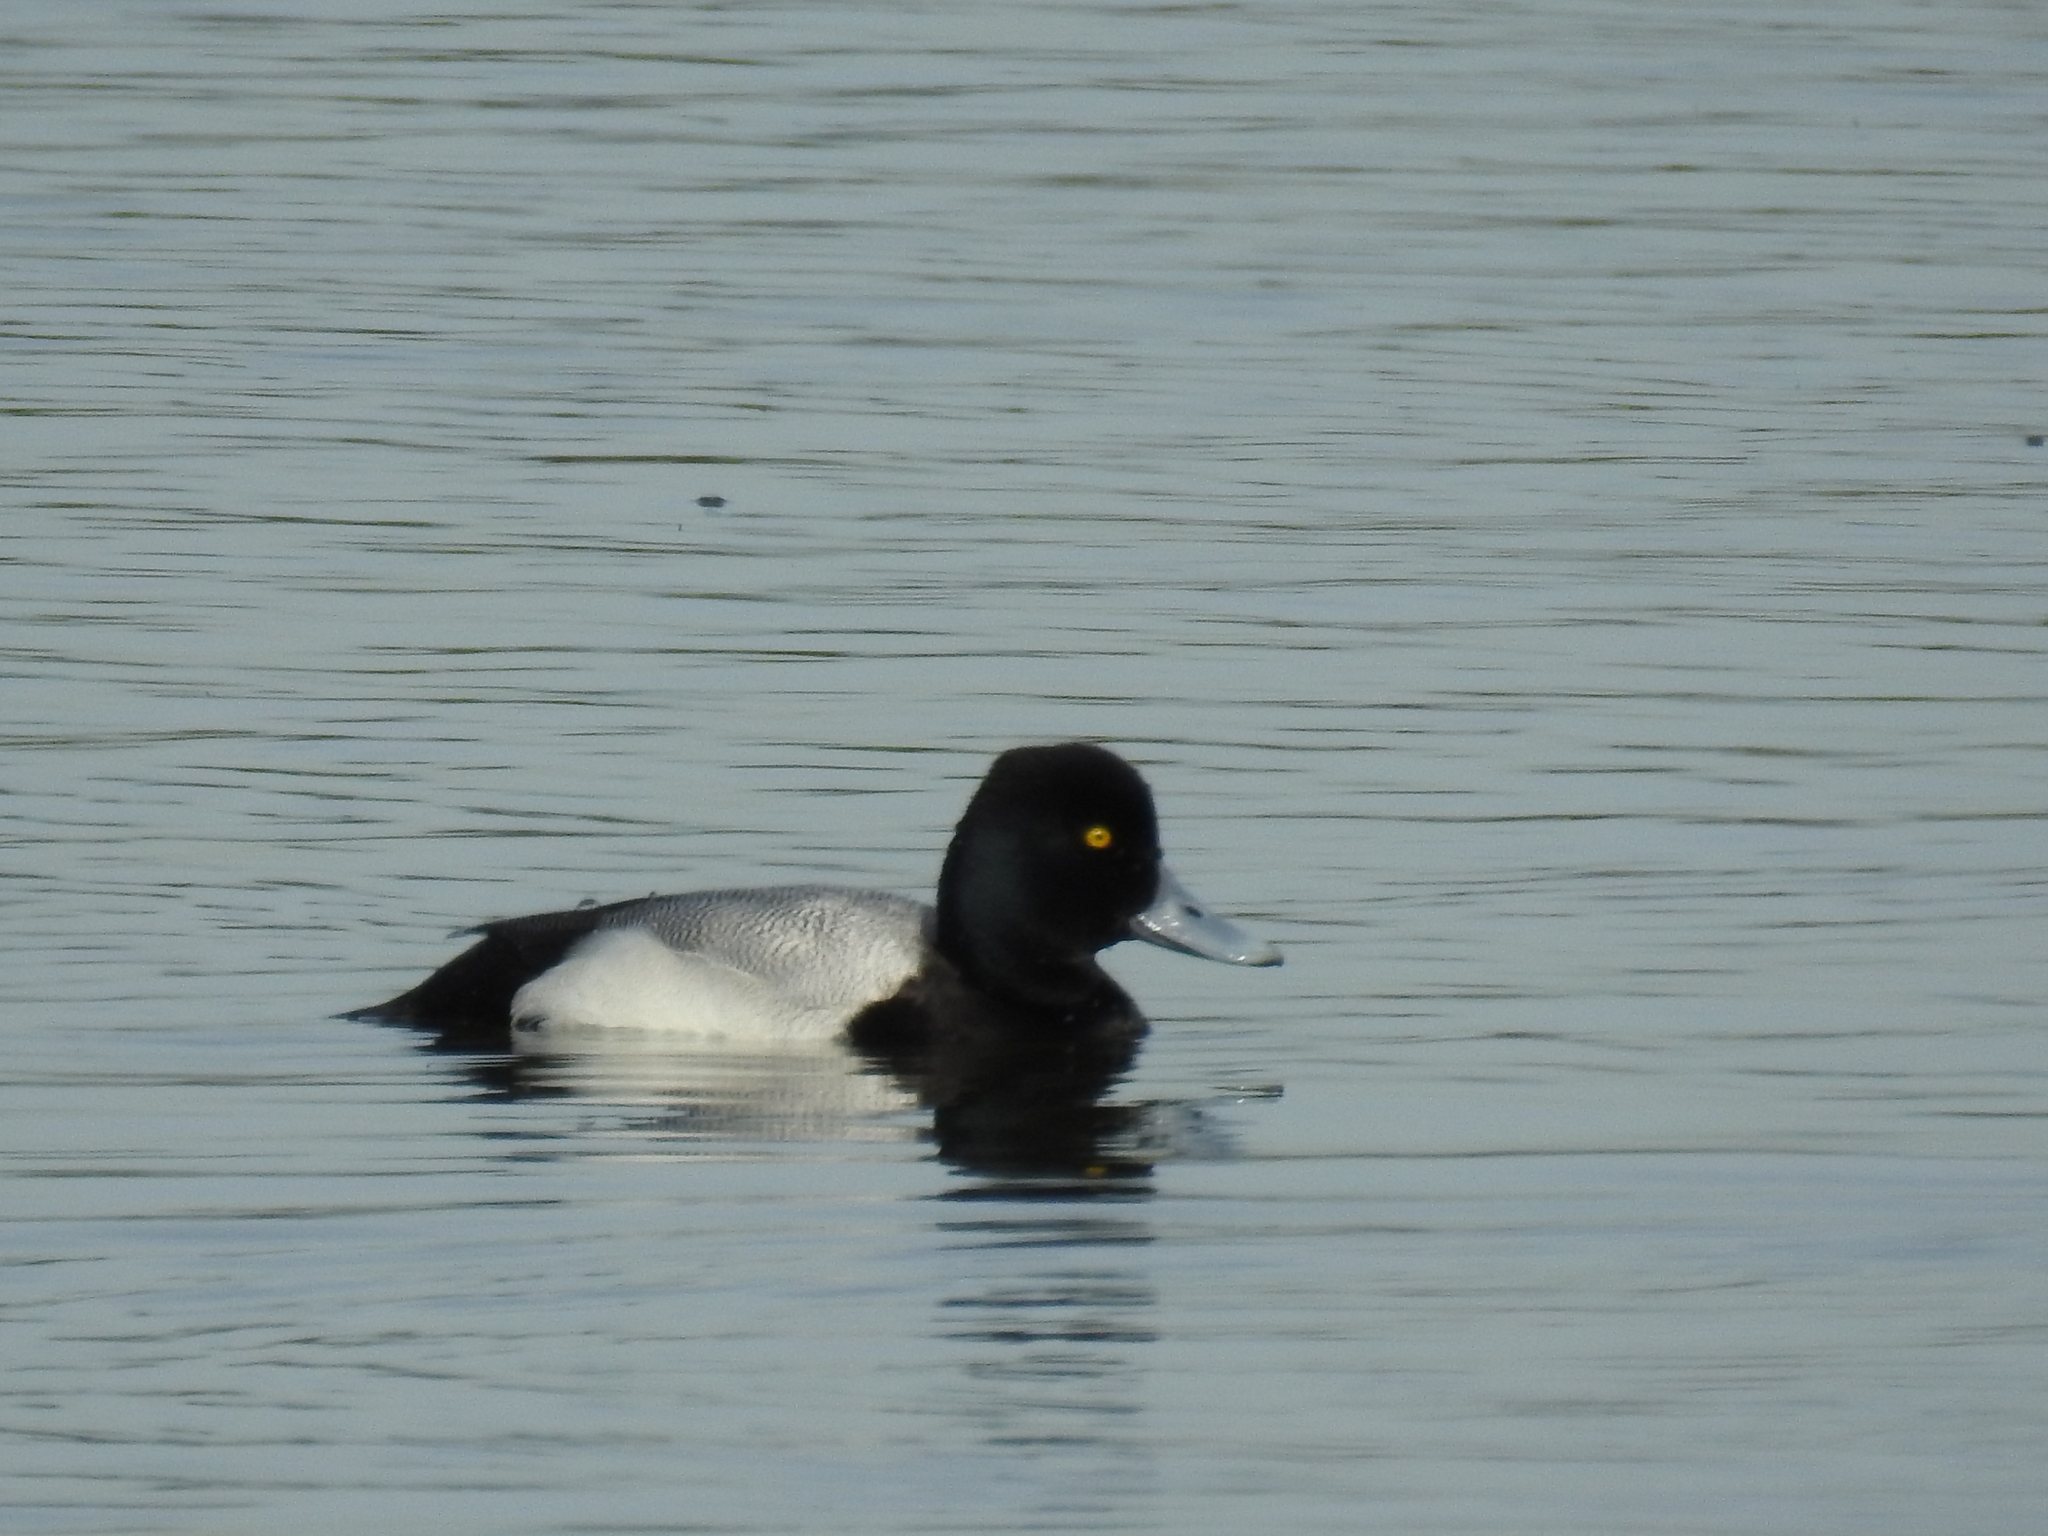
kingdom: Animalia
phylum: Chordata
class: Aves
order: Anseriformes
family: Anatidae
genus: Aythya
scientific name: Aythya affinis
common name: Lesser scaup
